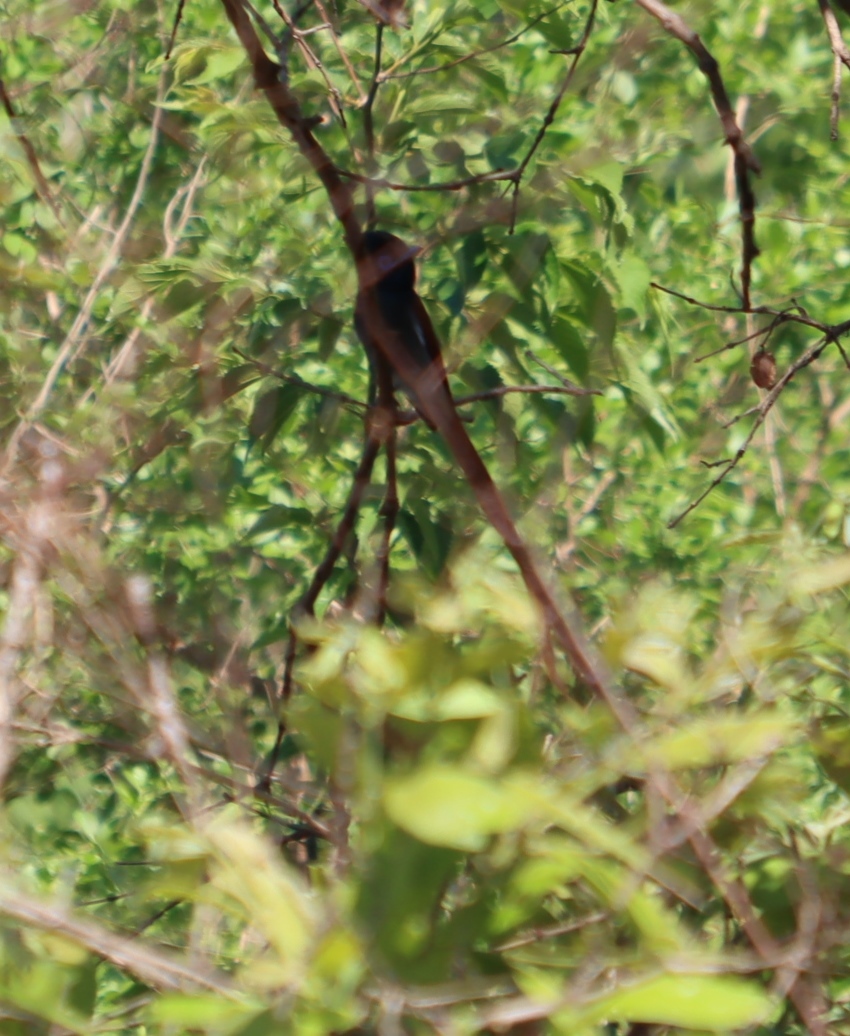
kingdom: Animalia
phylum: Chordata
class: Aves
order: Passeriformes
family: Monarchidae
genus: Terpsiphone
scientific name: Terpsiphone viridis
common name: African paradise flycatcher
